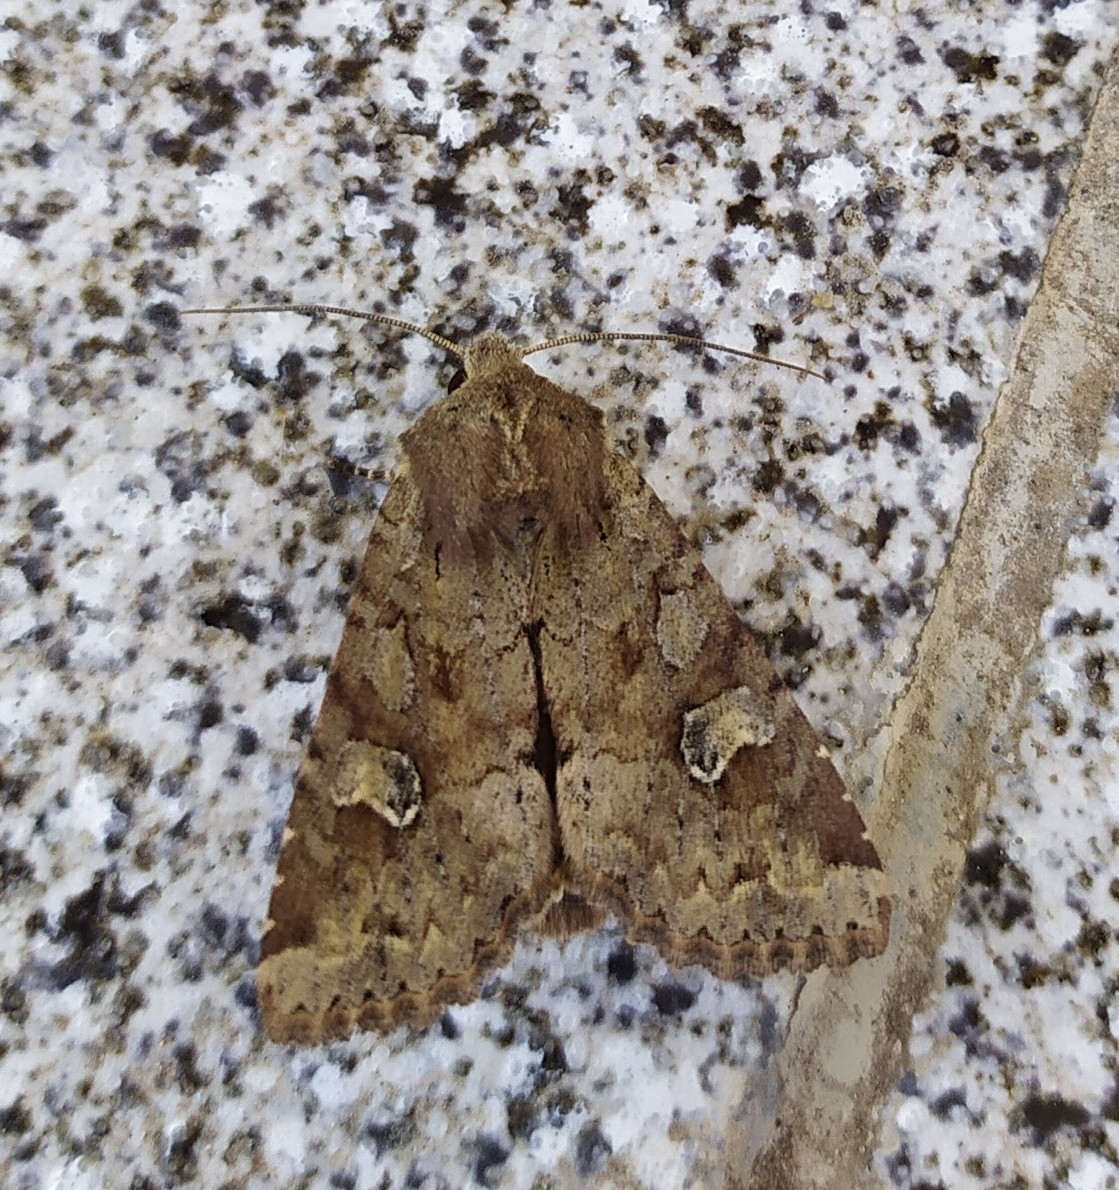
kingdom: Animalia
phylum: Arthropoda
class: Insecta
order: Lepidoptera
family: Noctuidae
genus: Apamea
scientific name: Apamea sordens
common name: Rustic shoulder-knot
